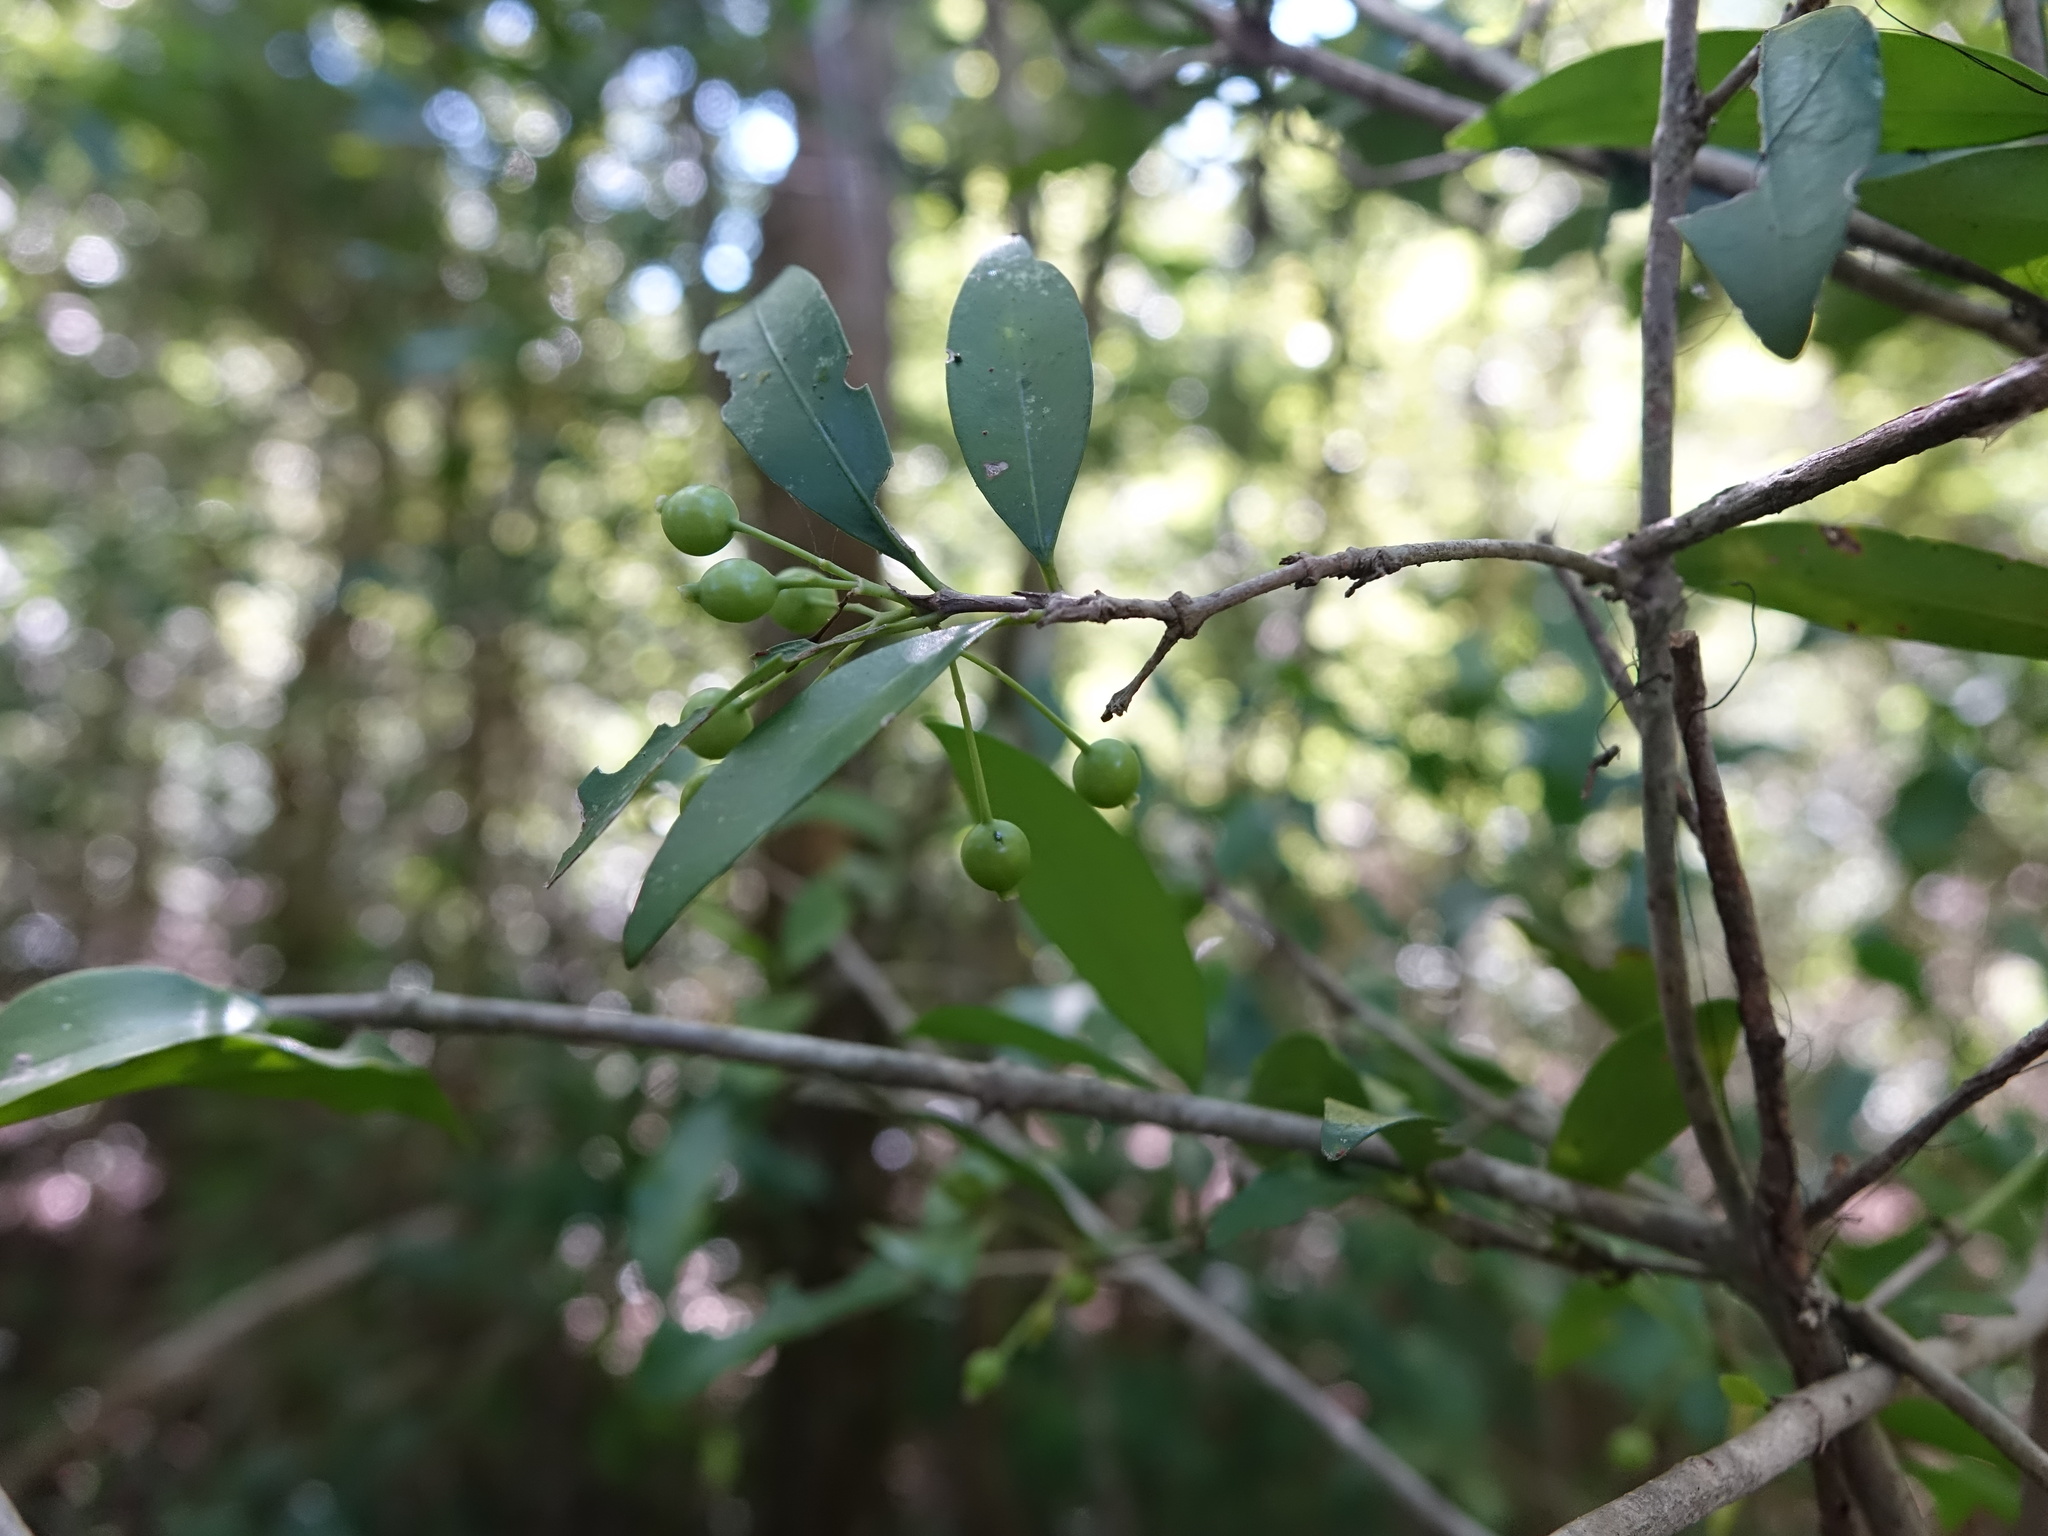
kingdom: Plantae
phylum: Tracheophyta
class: Magnoliopsida
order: Gentianales
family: Rubiaceae
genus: Coptosperma
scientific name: Coptosperma supra-axillare
